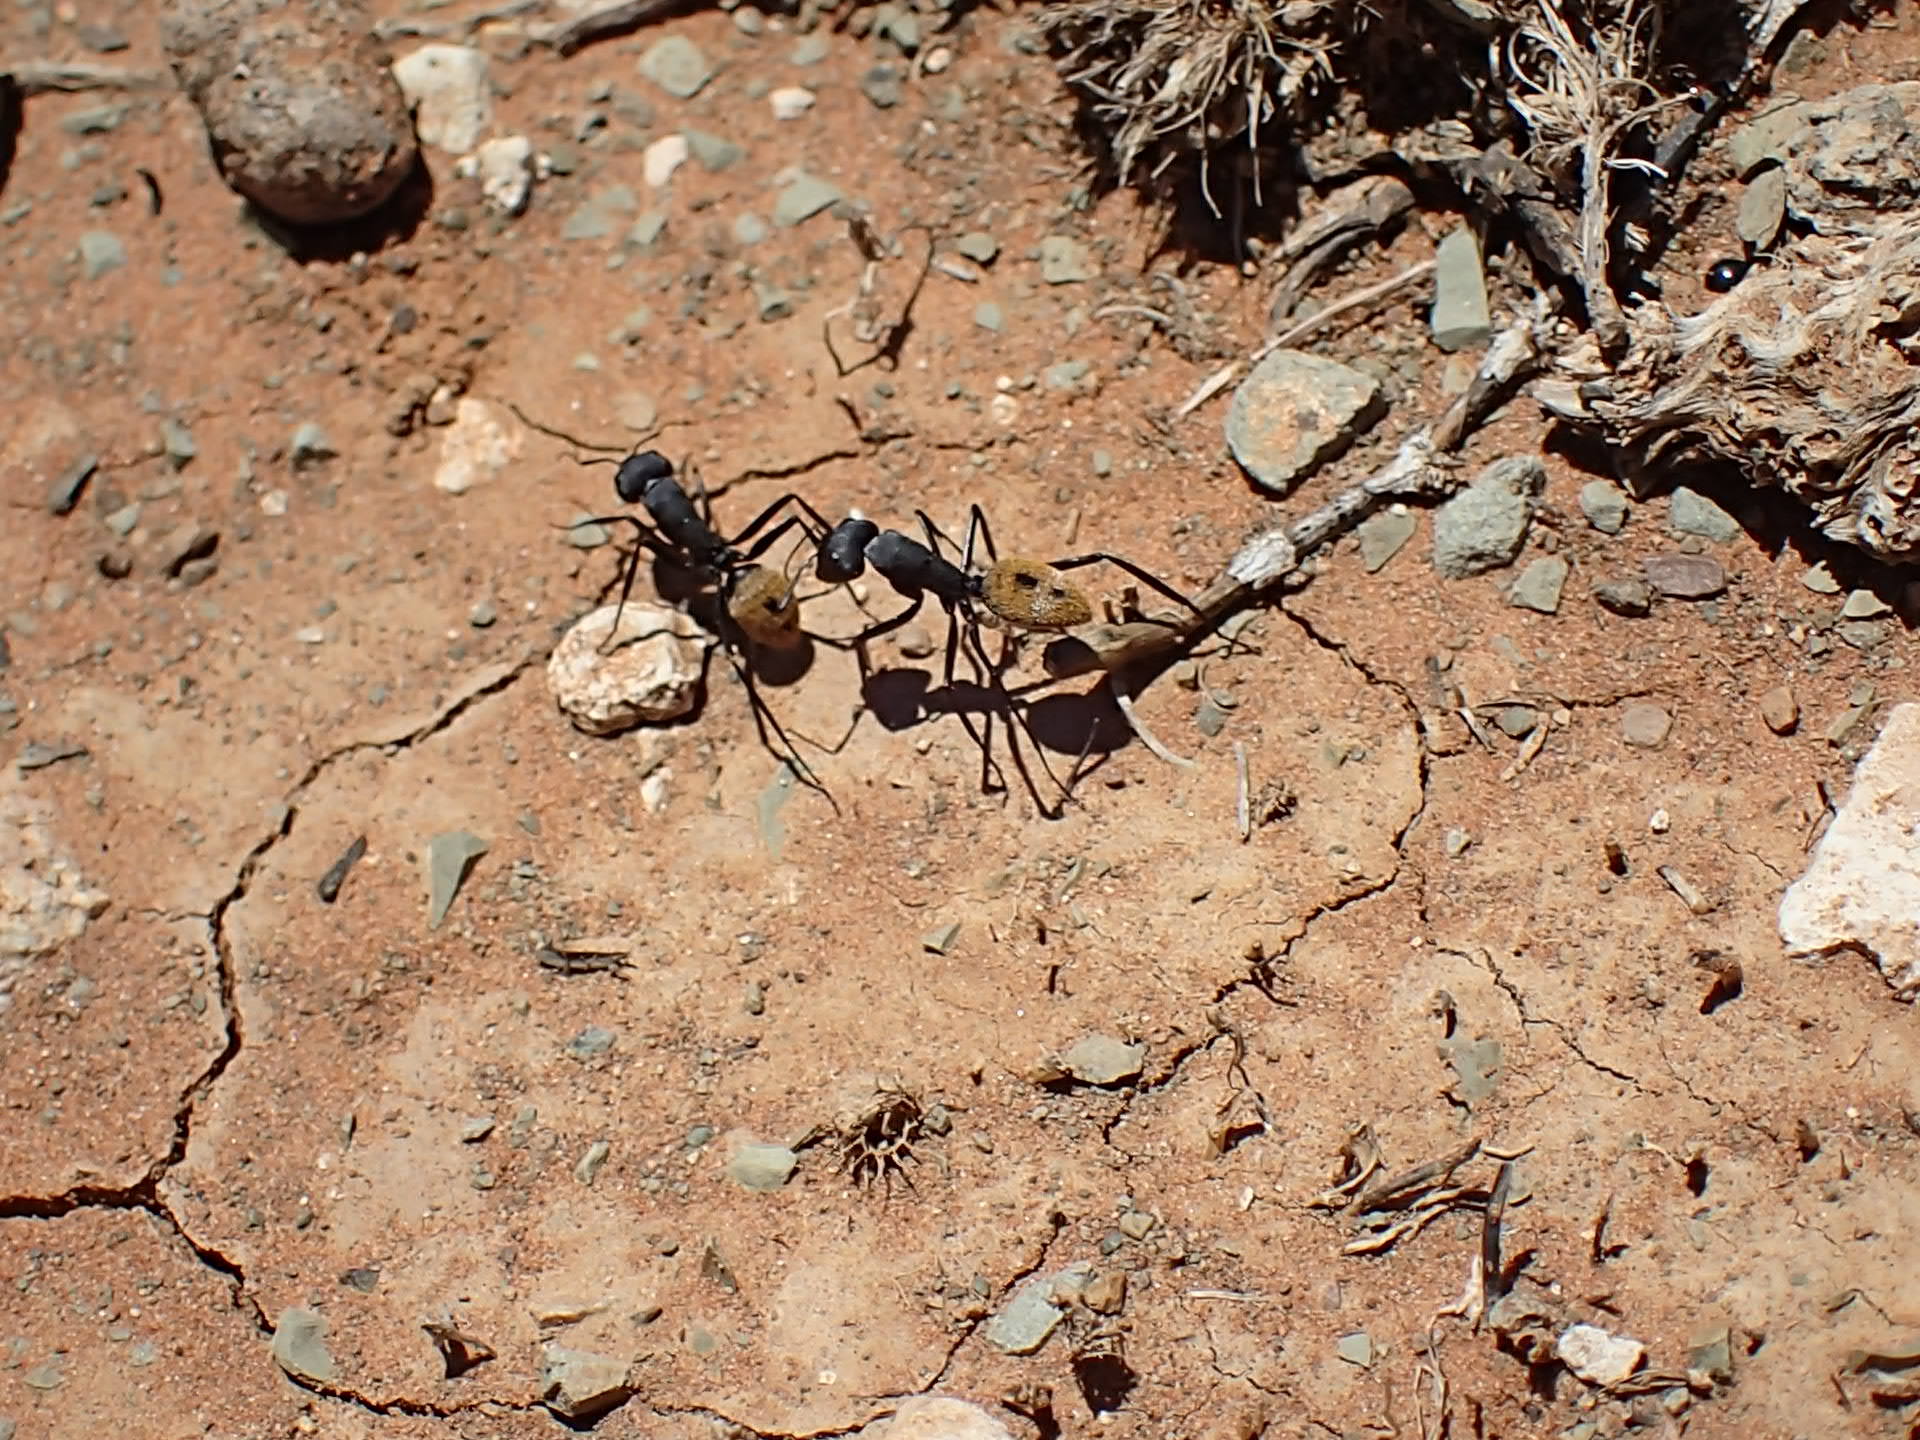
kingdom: Animalia
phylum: Arthropoda
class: Insecta
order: Hymenoptera
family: Formicidae
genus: Camponotus
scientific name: Camponotus fulvopilosus
